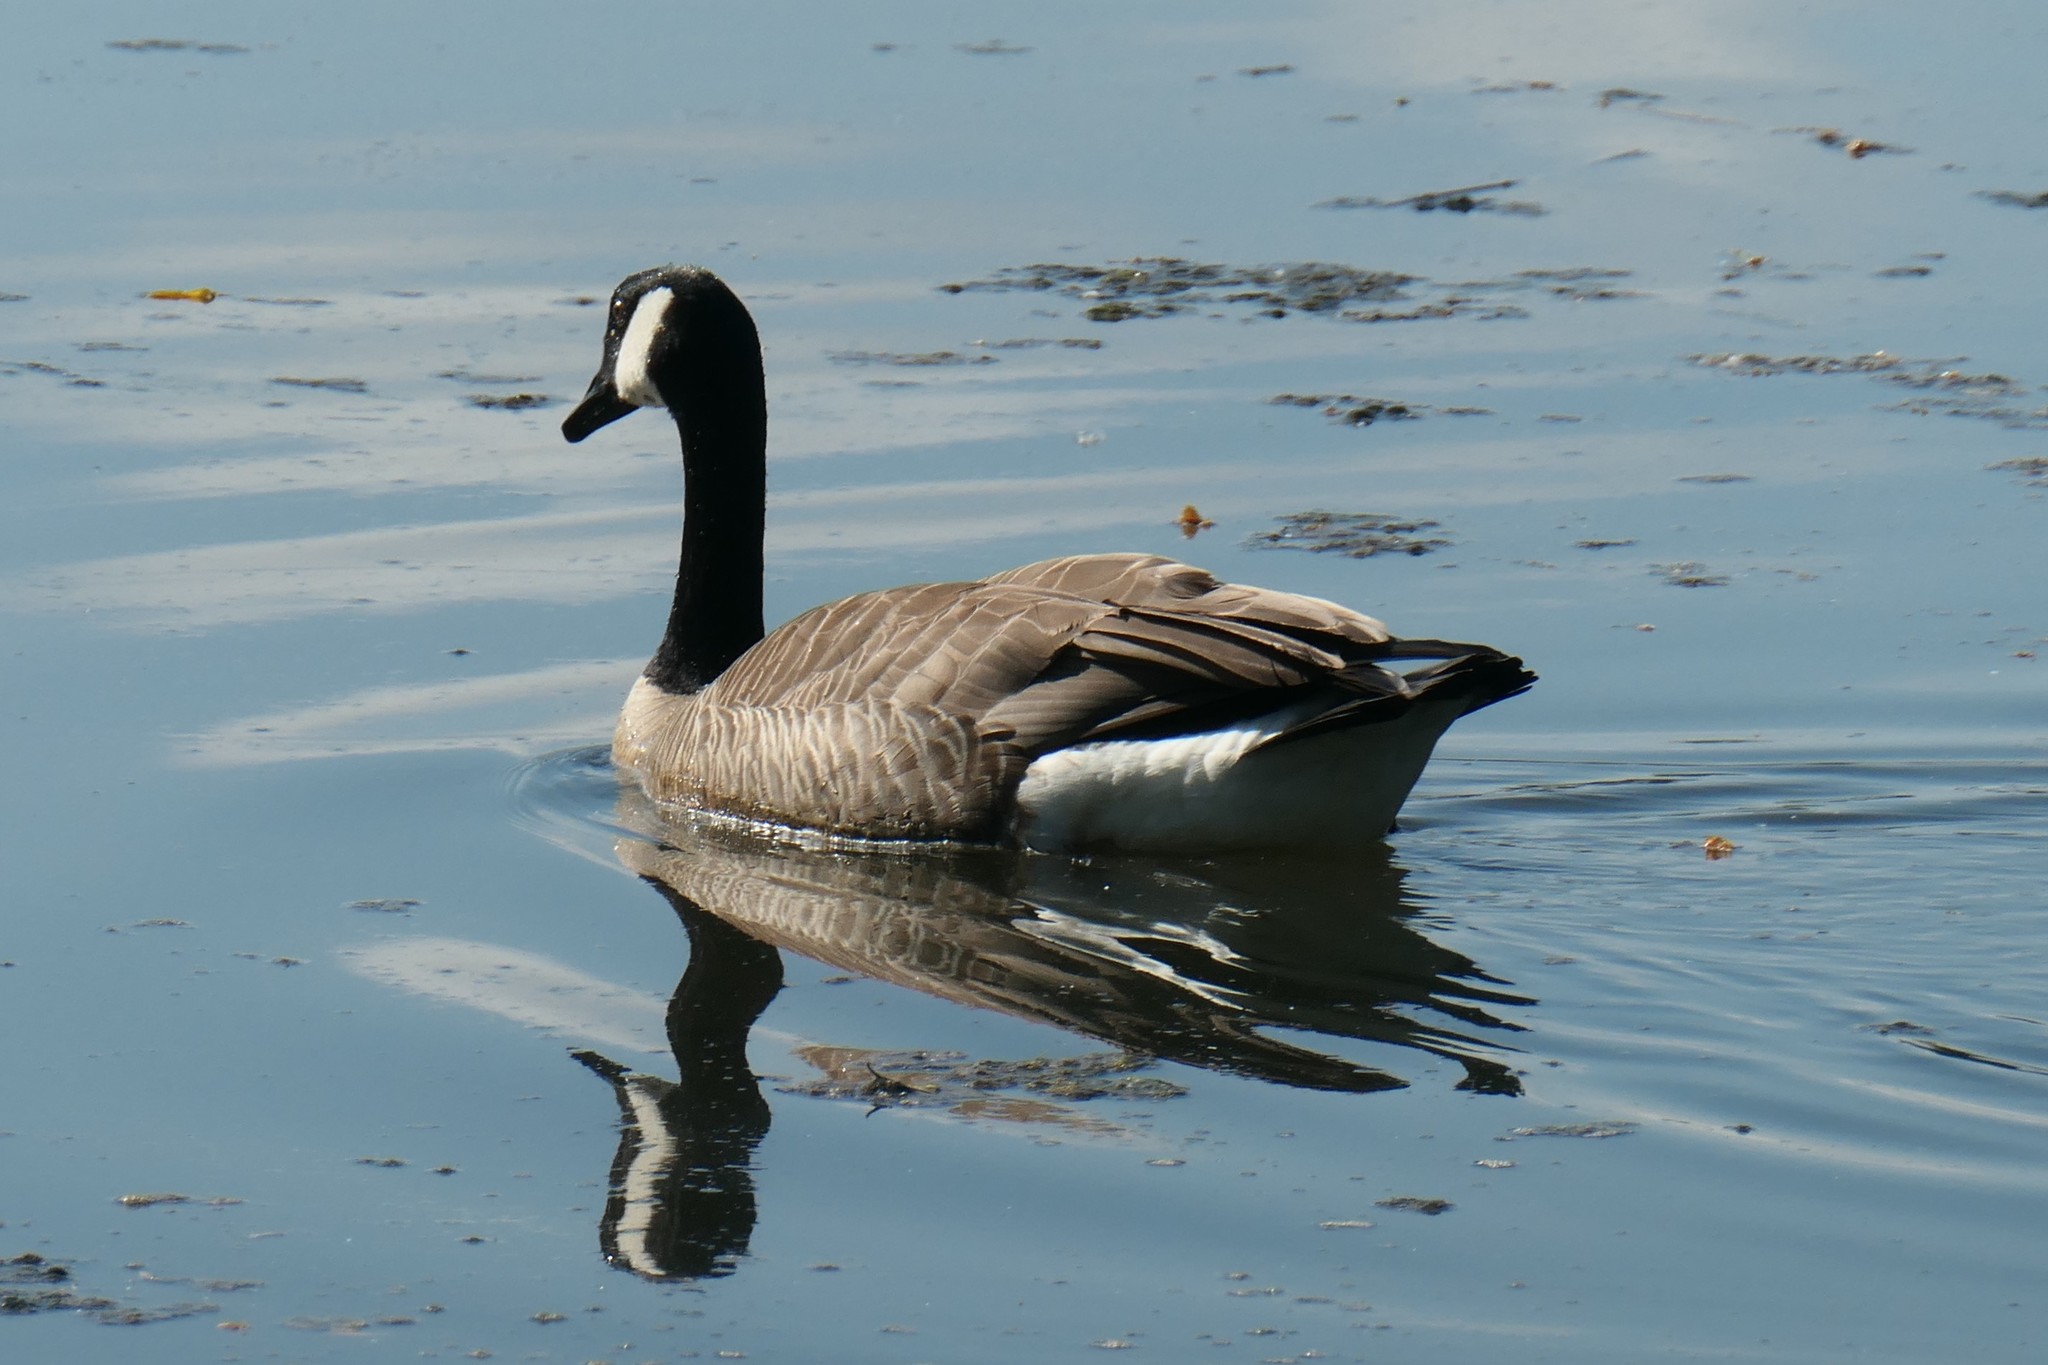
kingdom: Animalia
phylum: Chordata
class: Aves
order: Anseriformes
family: Anatidae
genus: Branta
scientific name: Branta canadensis
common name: Canada goose
